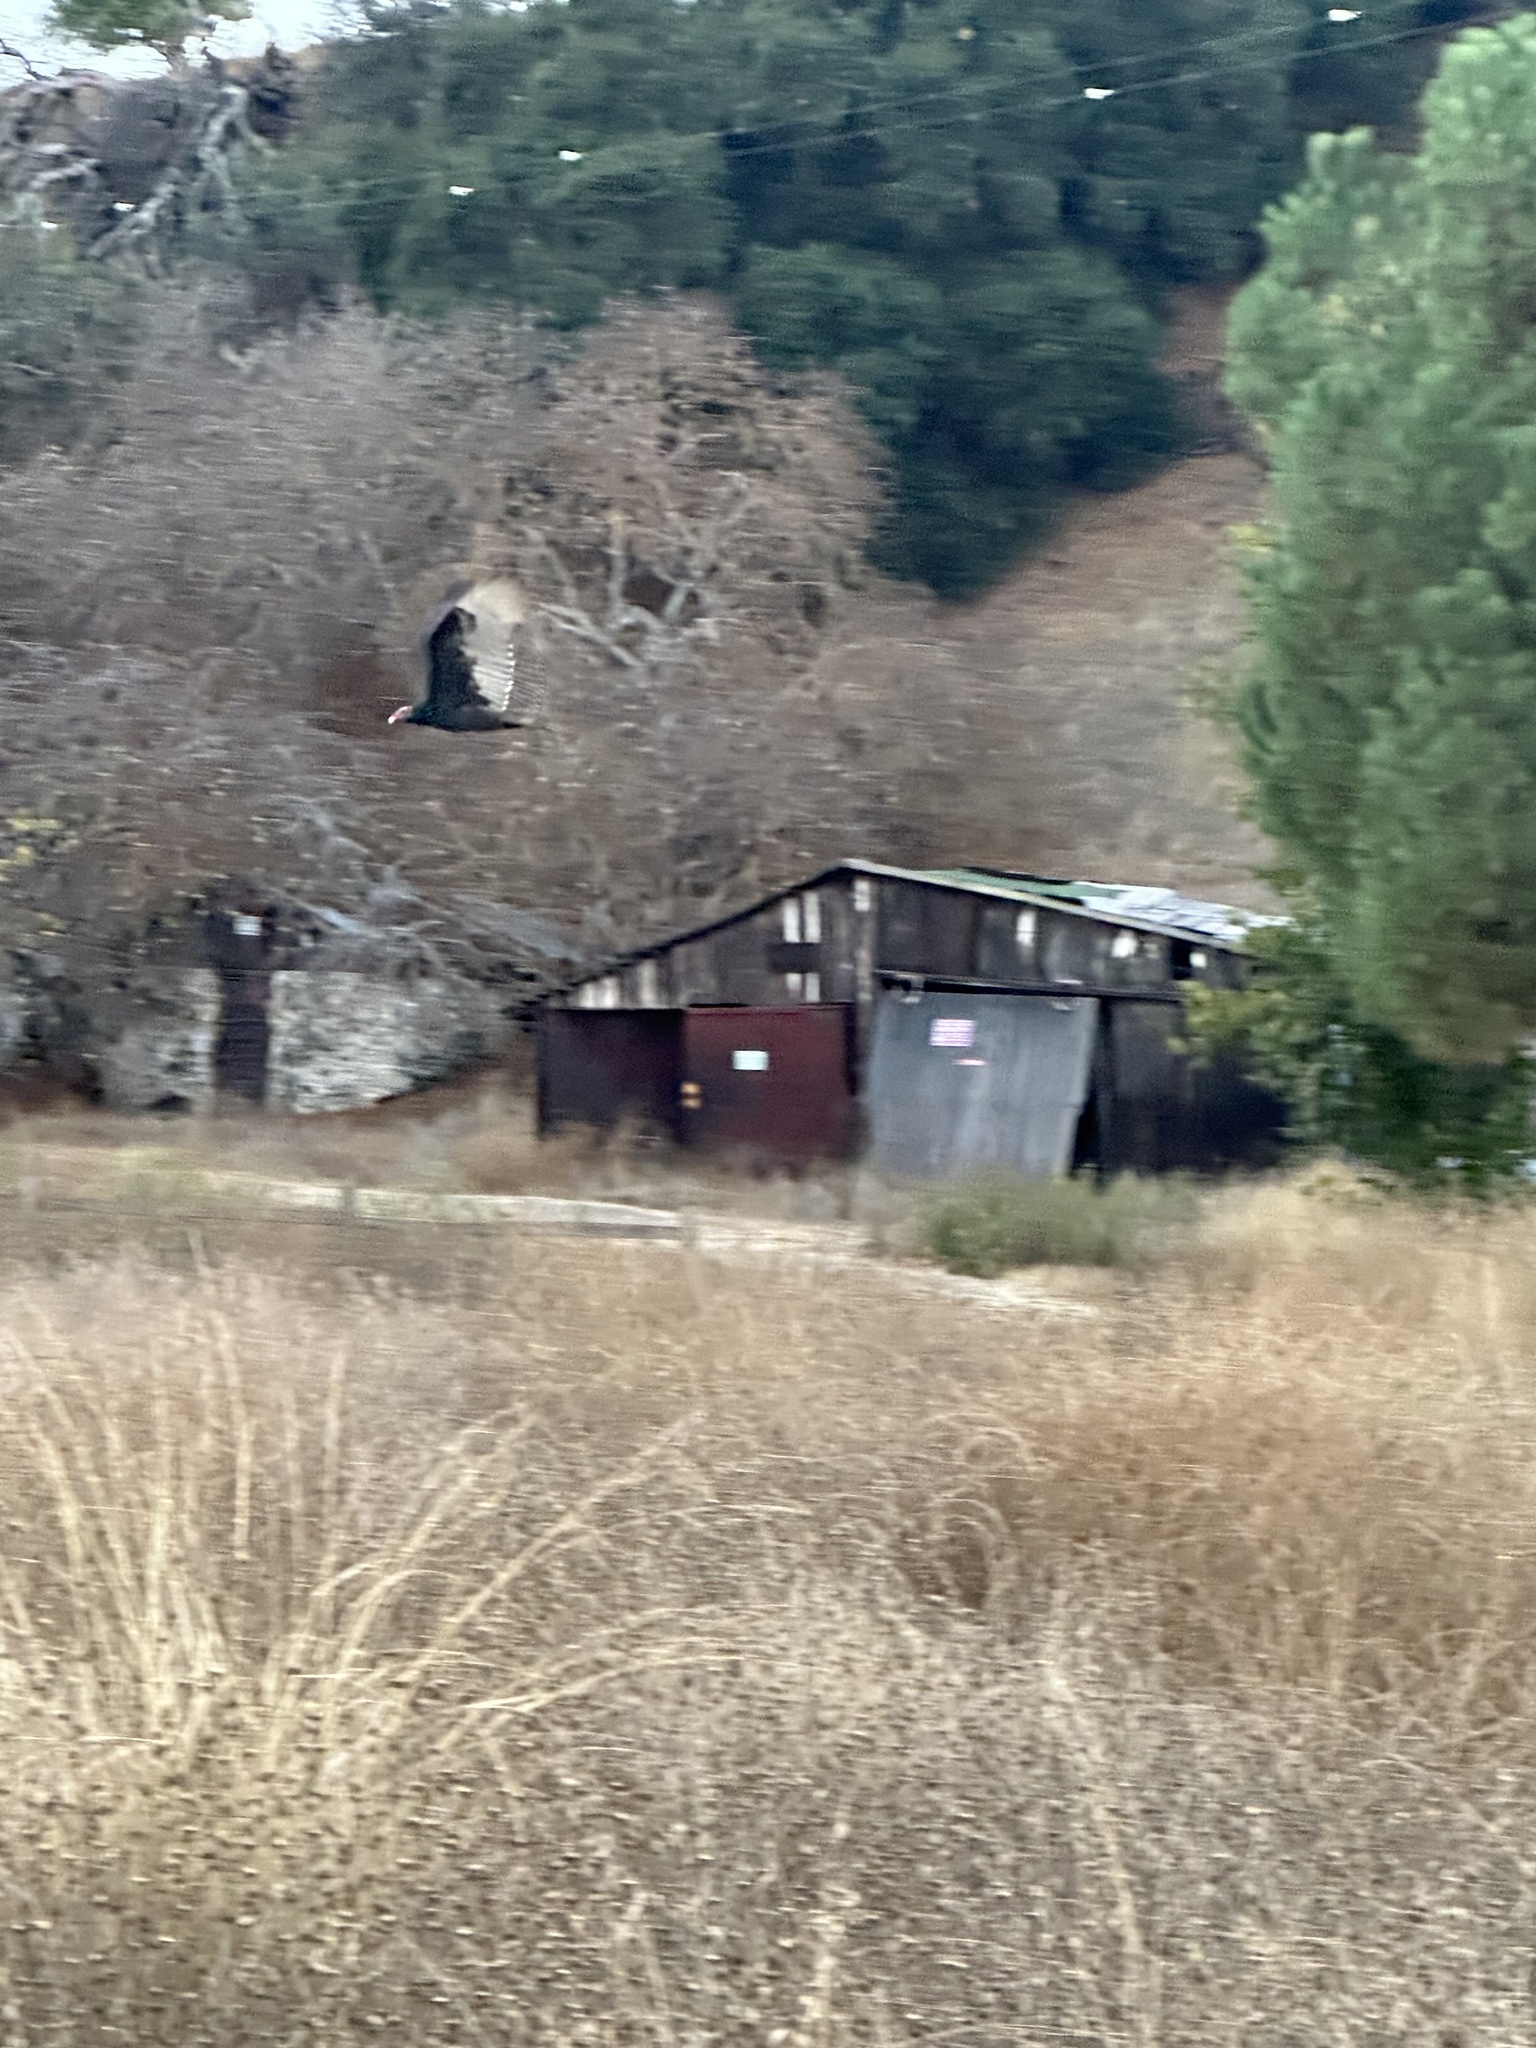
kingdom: Animalia
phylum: Chordata
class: Aves
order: Accipitriformes
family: Cathartidae
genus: Cathartes
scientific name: Cathartes aura
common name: Turkey vulture
